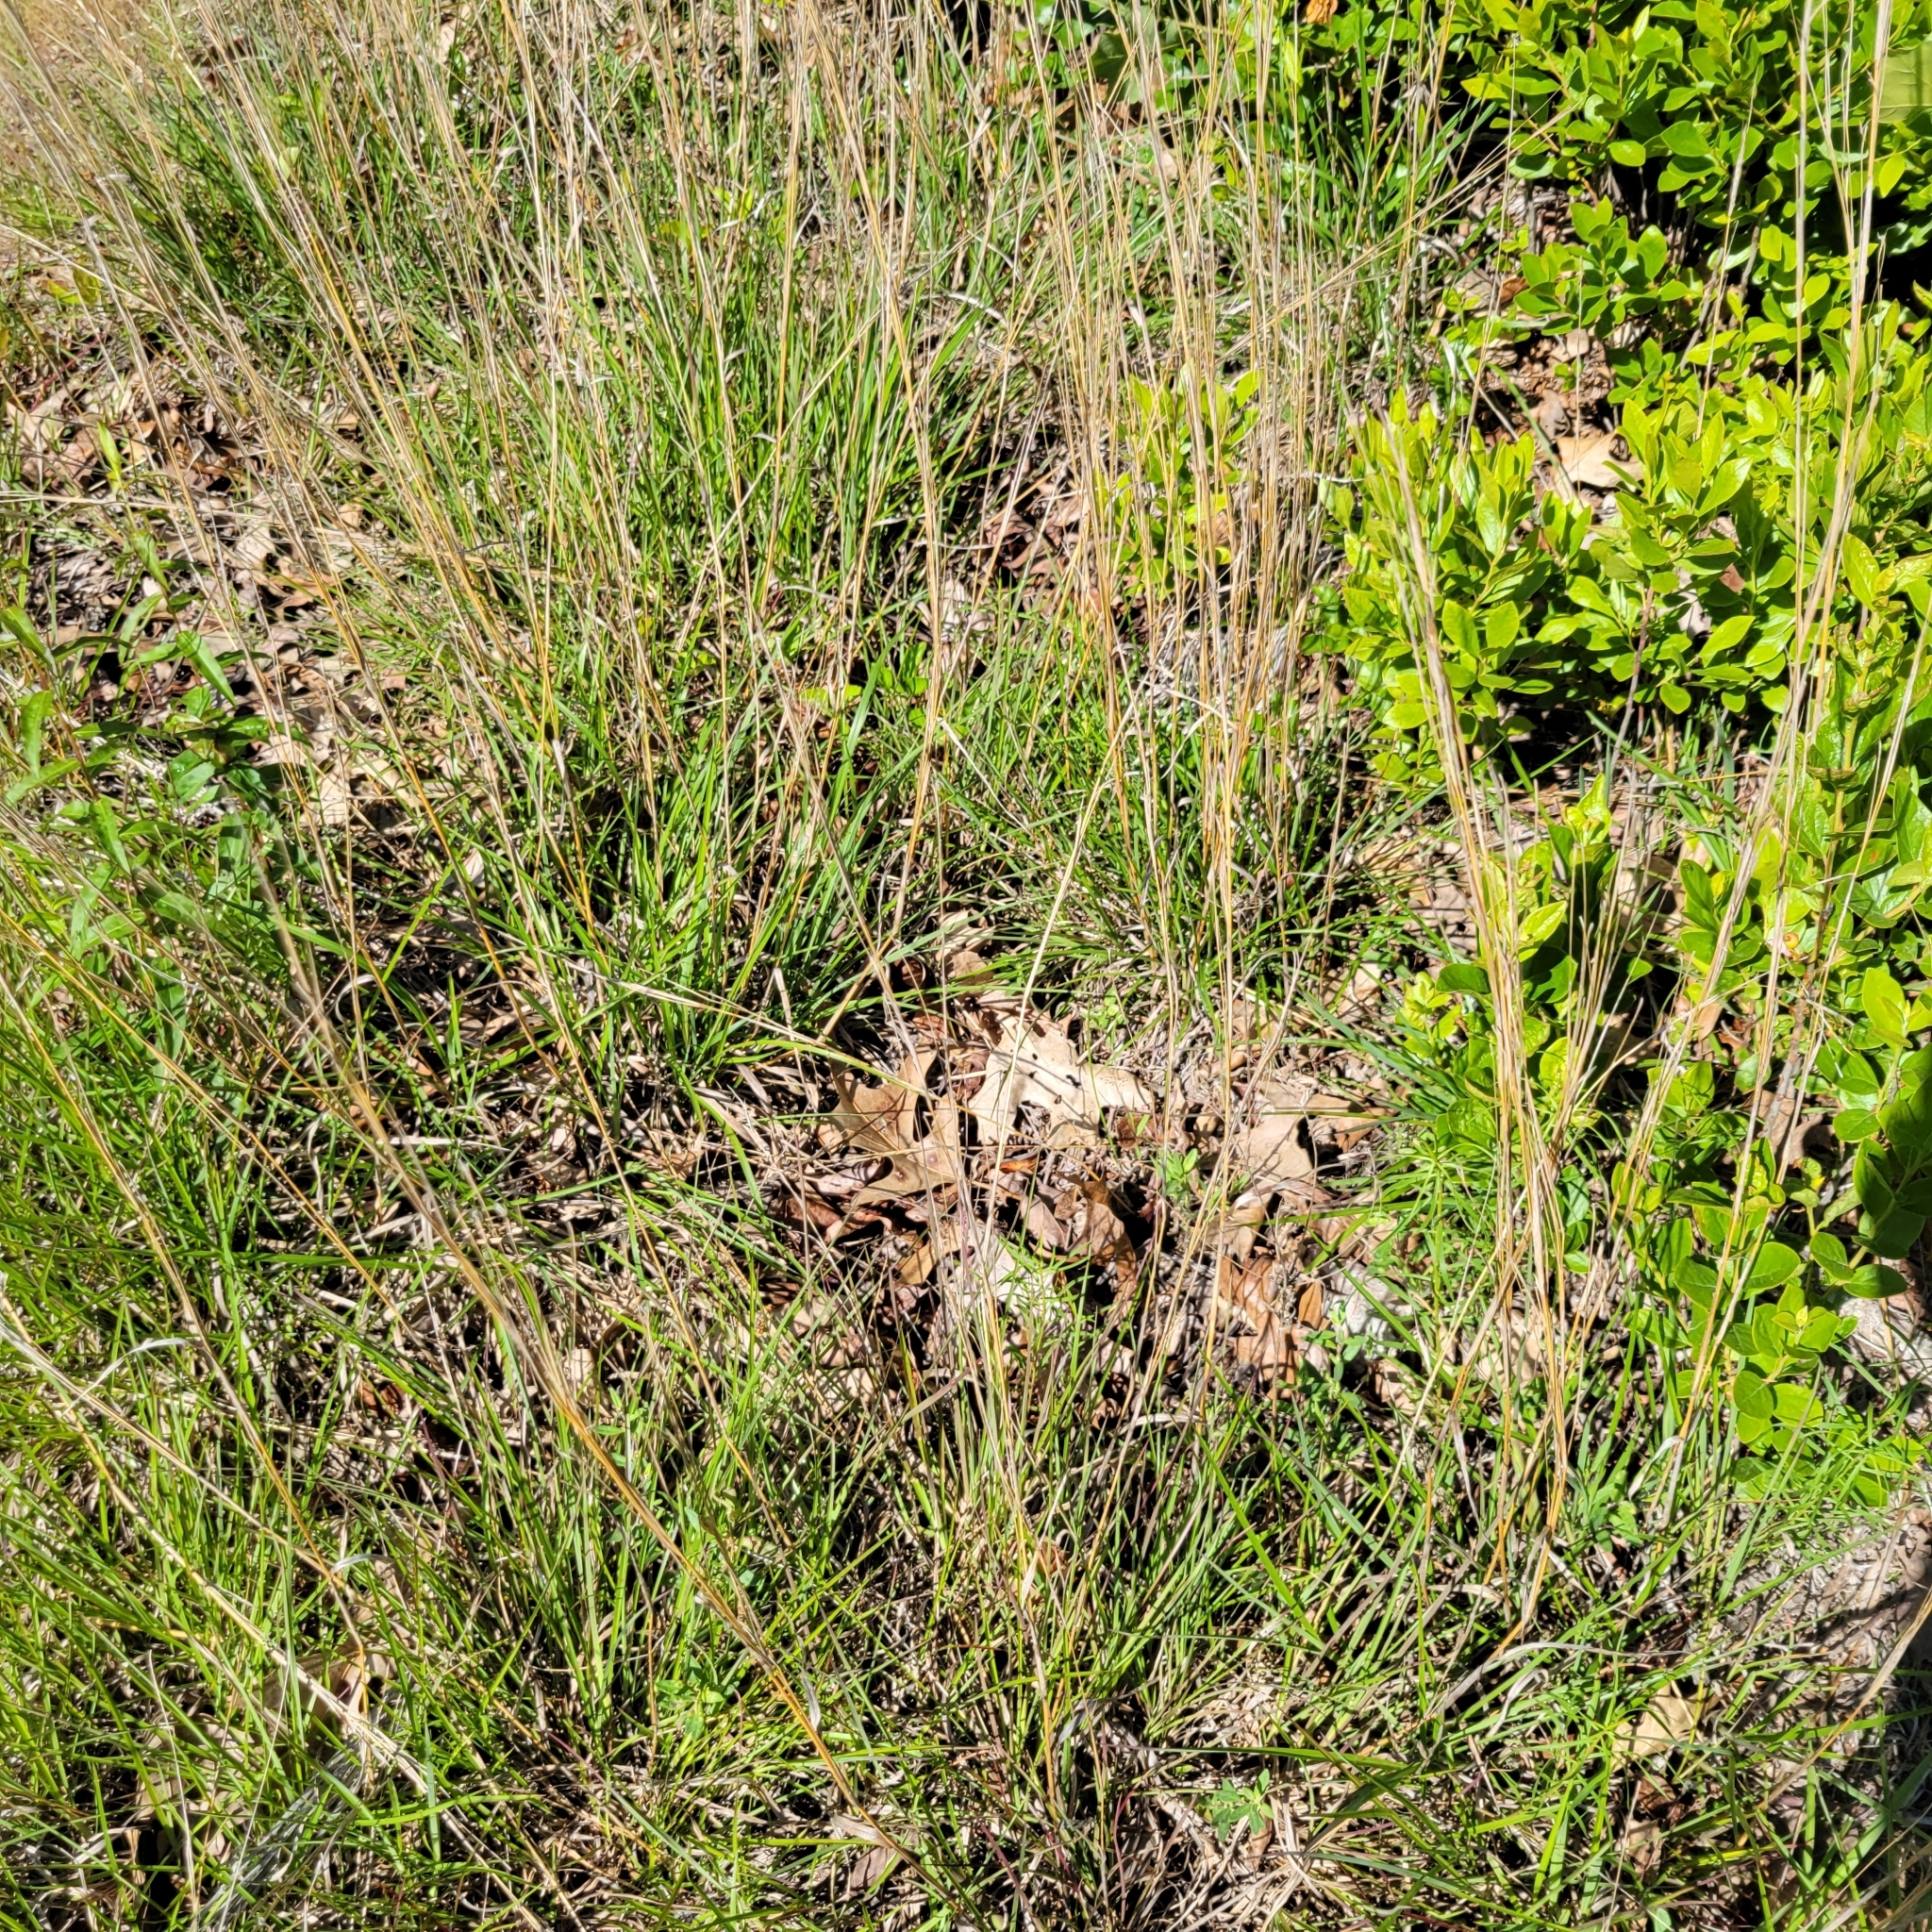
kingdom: Plantae
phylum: Tracheophyta
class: Liliopsida
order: Poales
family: Poaceae
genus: Schizachyrium
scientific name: Schizachyrium scoparium
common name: Little bluestem
